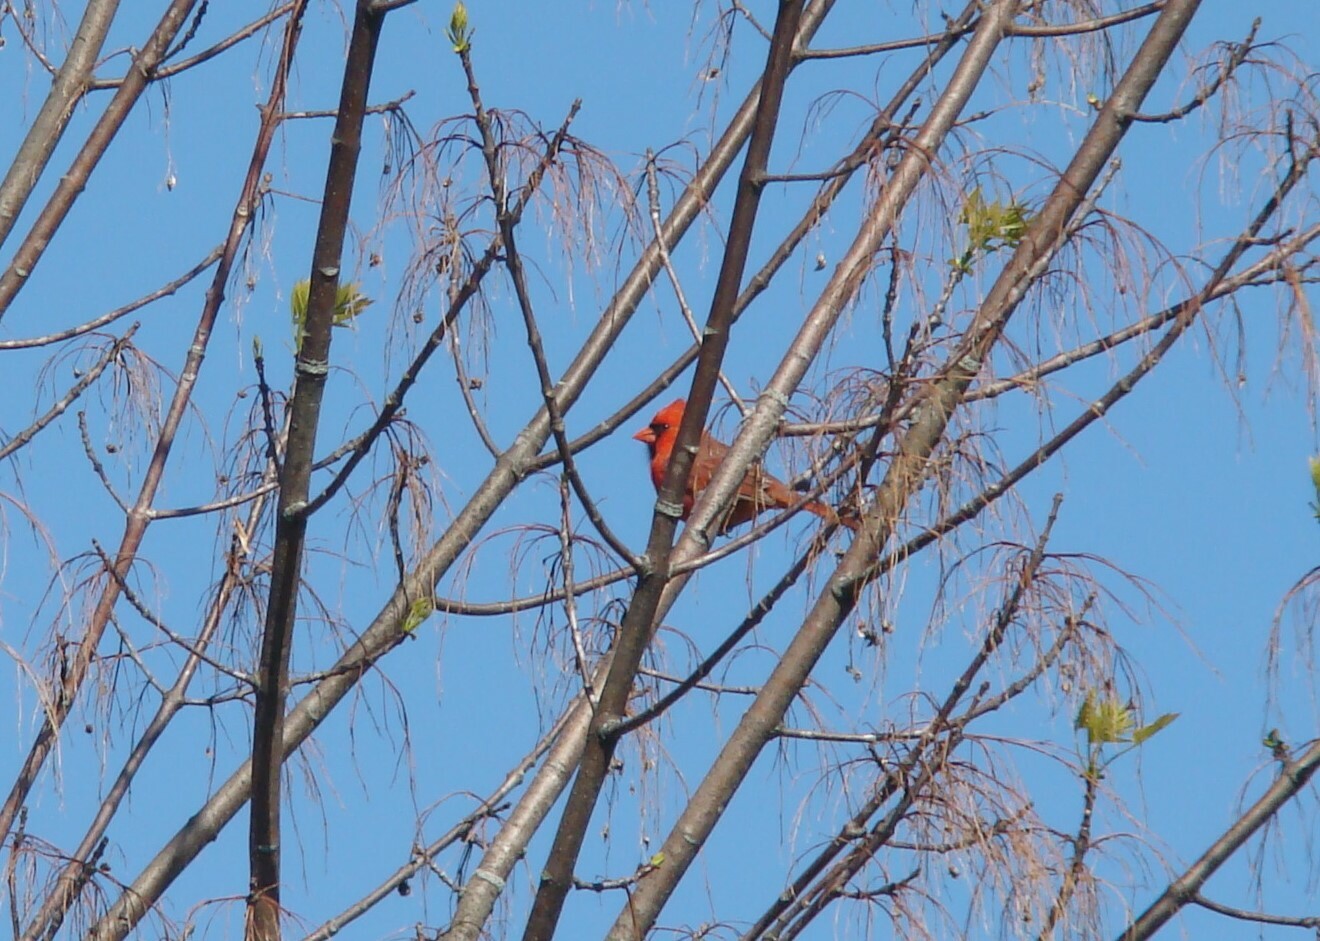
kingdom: Animalia
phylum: Chordata
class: Aves
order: Passeriformes
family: Cardinalidae
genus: Cardinalis
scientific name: Cardinalis cardinalis
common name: Northern cardinal
